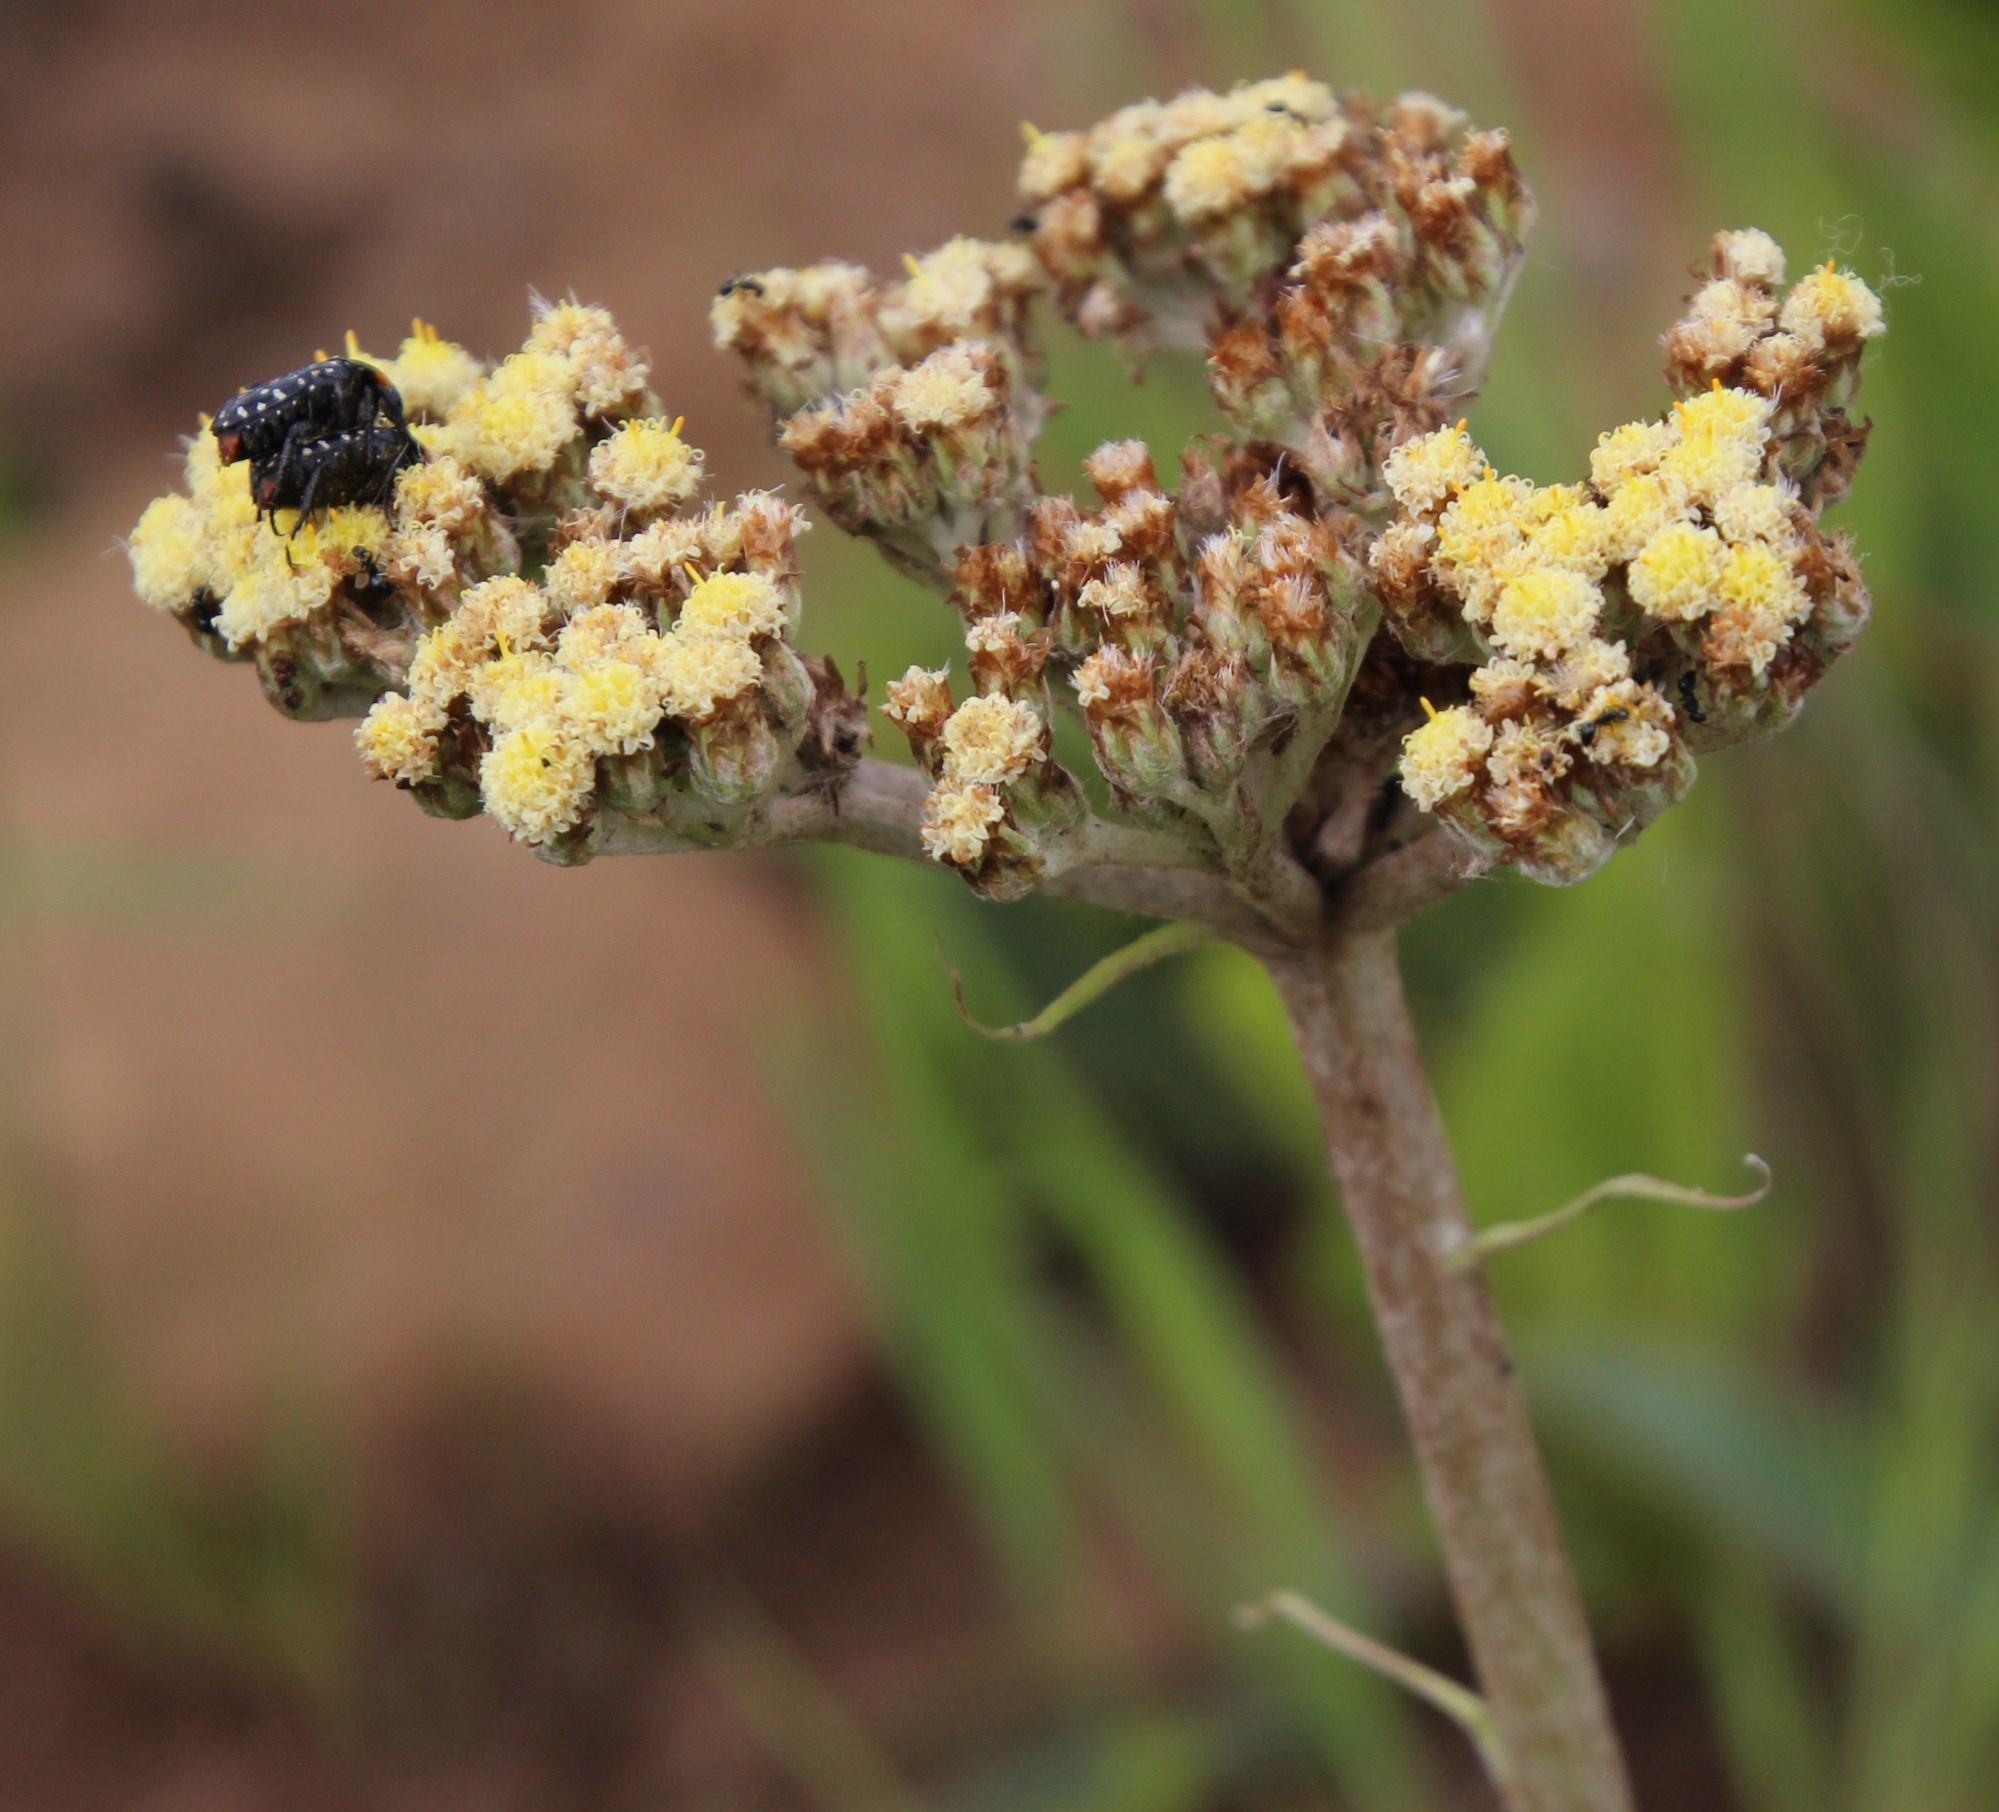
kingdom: Animalia
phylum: Arthropoda
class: Insecta
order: Coleoptera
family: Scarabaeidae
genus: Cyrtothyrea
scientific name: Cyrtothyrea testaceoguttata
